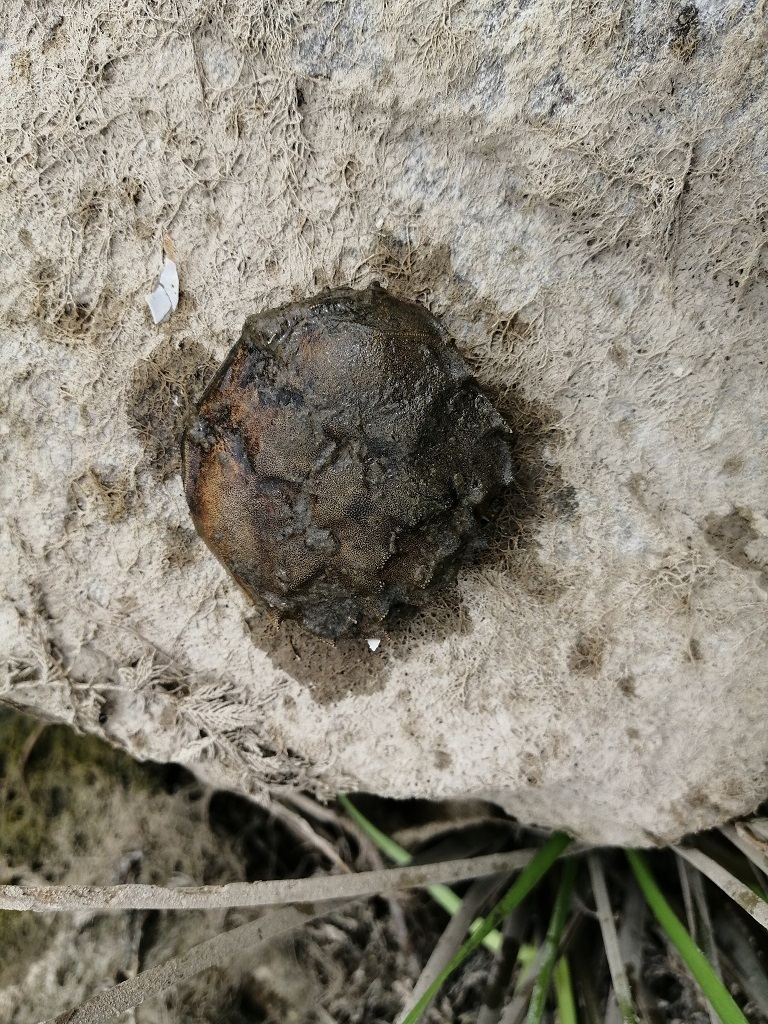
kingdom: Animalia
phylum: Arthropoda
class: Malacostraca
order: Decapoda
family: Varunidae
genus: Eriocheir
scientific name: Eriocheir sinensis
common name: Chinese mitten crab
